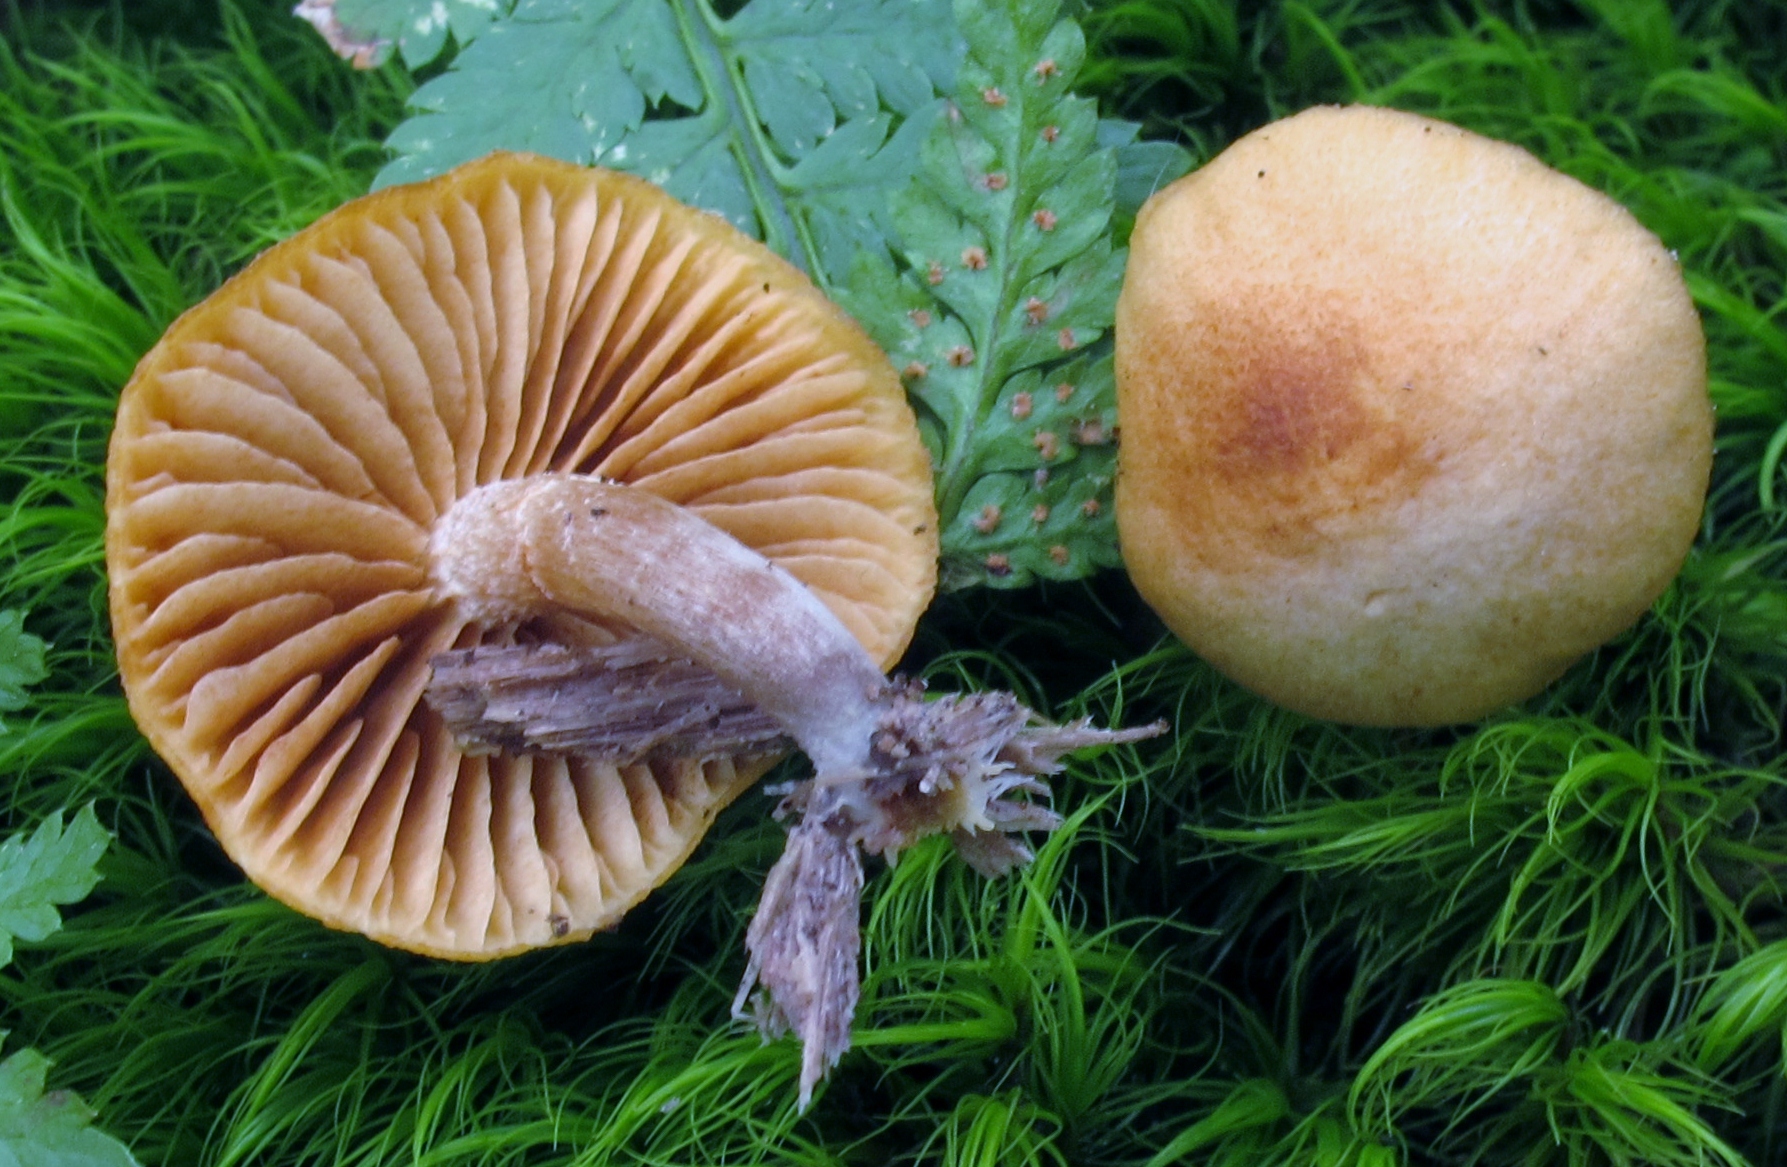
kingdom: Fungi
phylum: Basidiomycota
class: Agaricomycetes
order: Agaricales
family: Hymenogastraceae
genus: Galerina
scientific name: Galerina marginata
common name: Funeral bell
